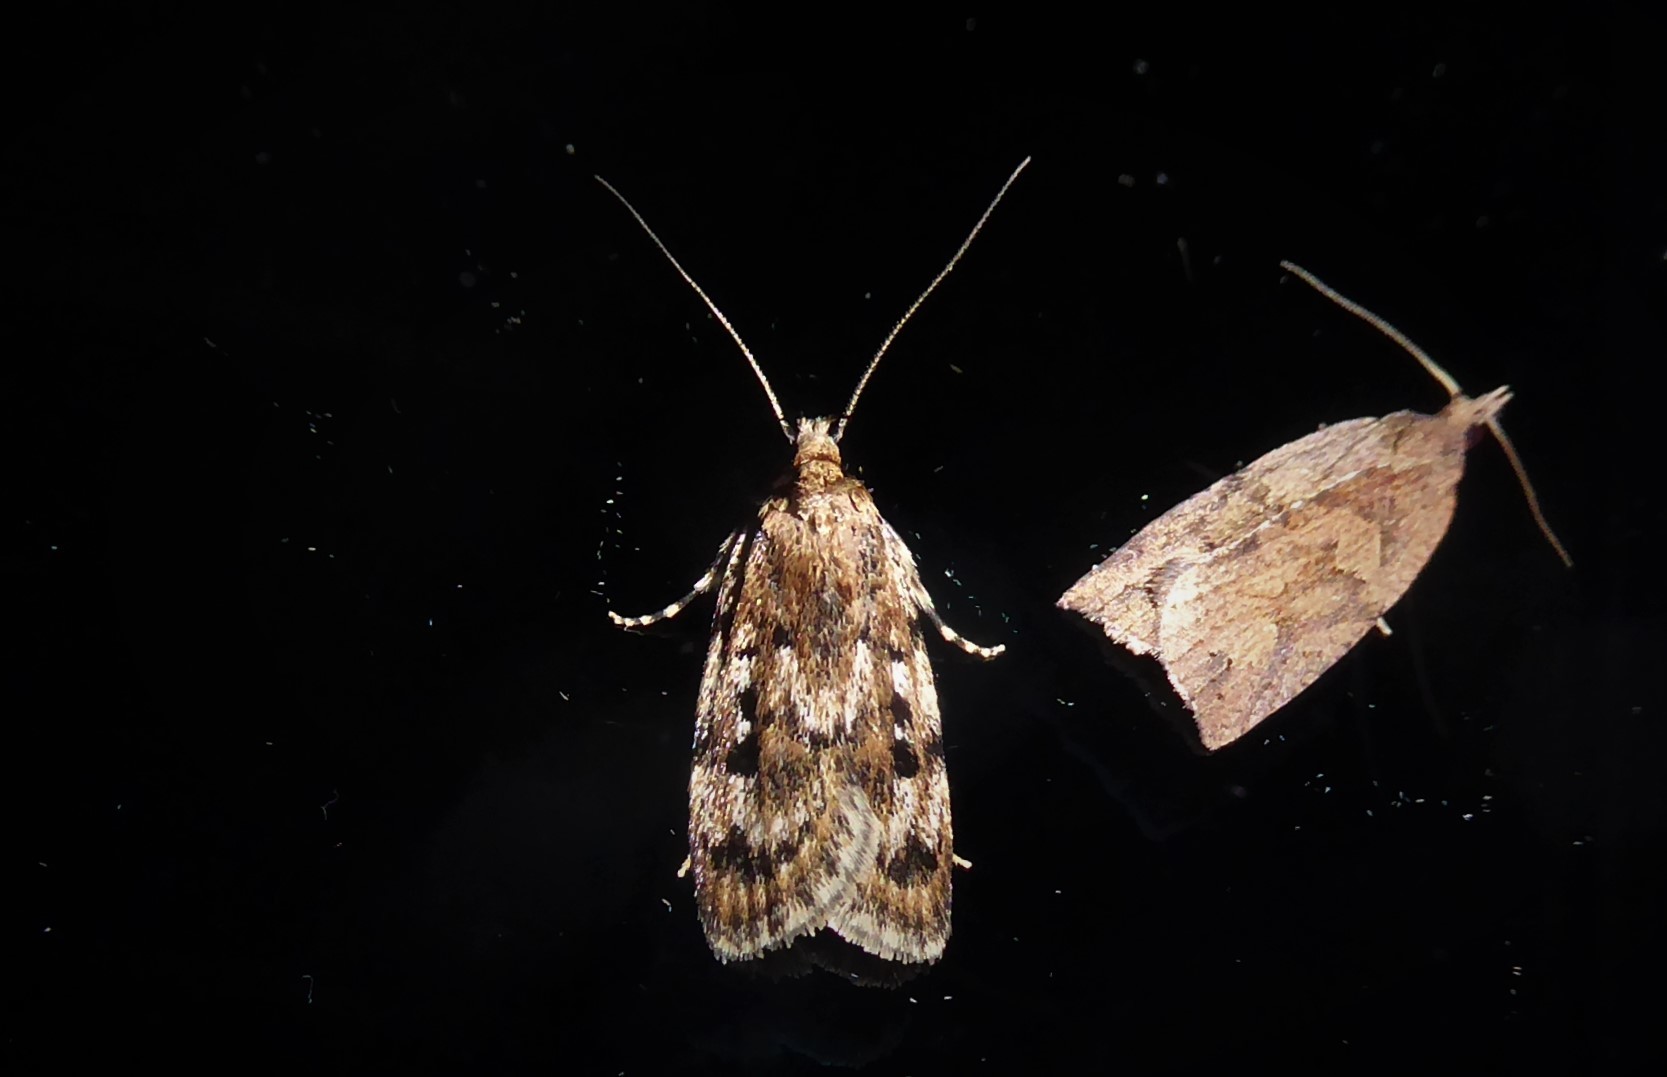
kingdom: Animalia
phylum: Arthropoda
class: Insecta
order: Lepidoptera
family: Oecophoridae
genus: Barea
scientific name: Barea exarcha
